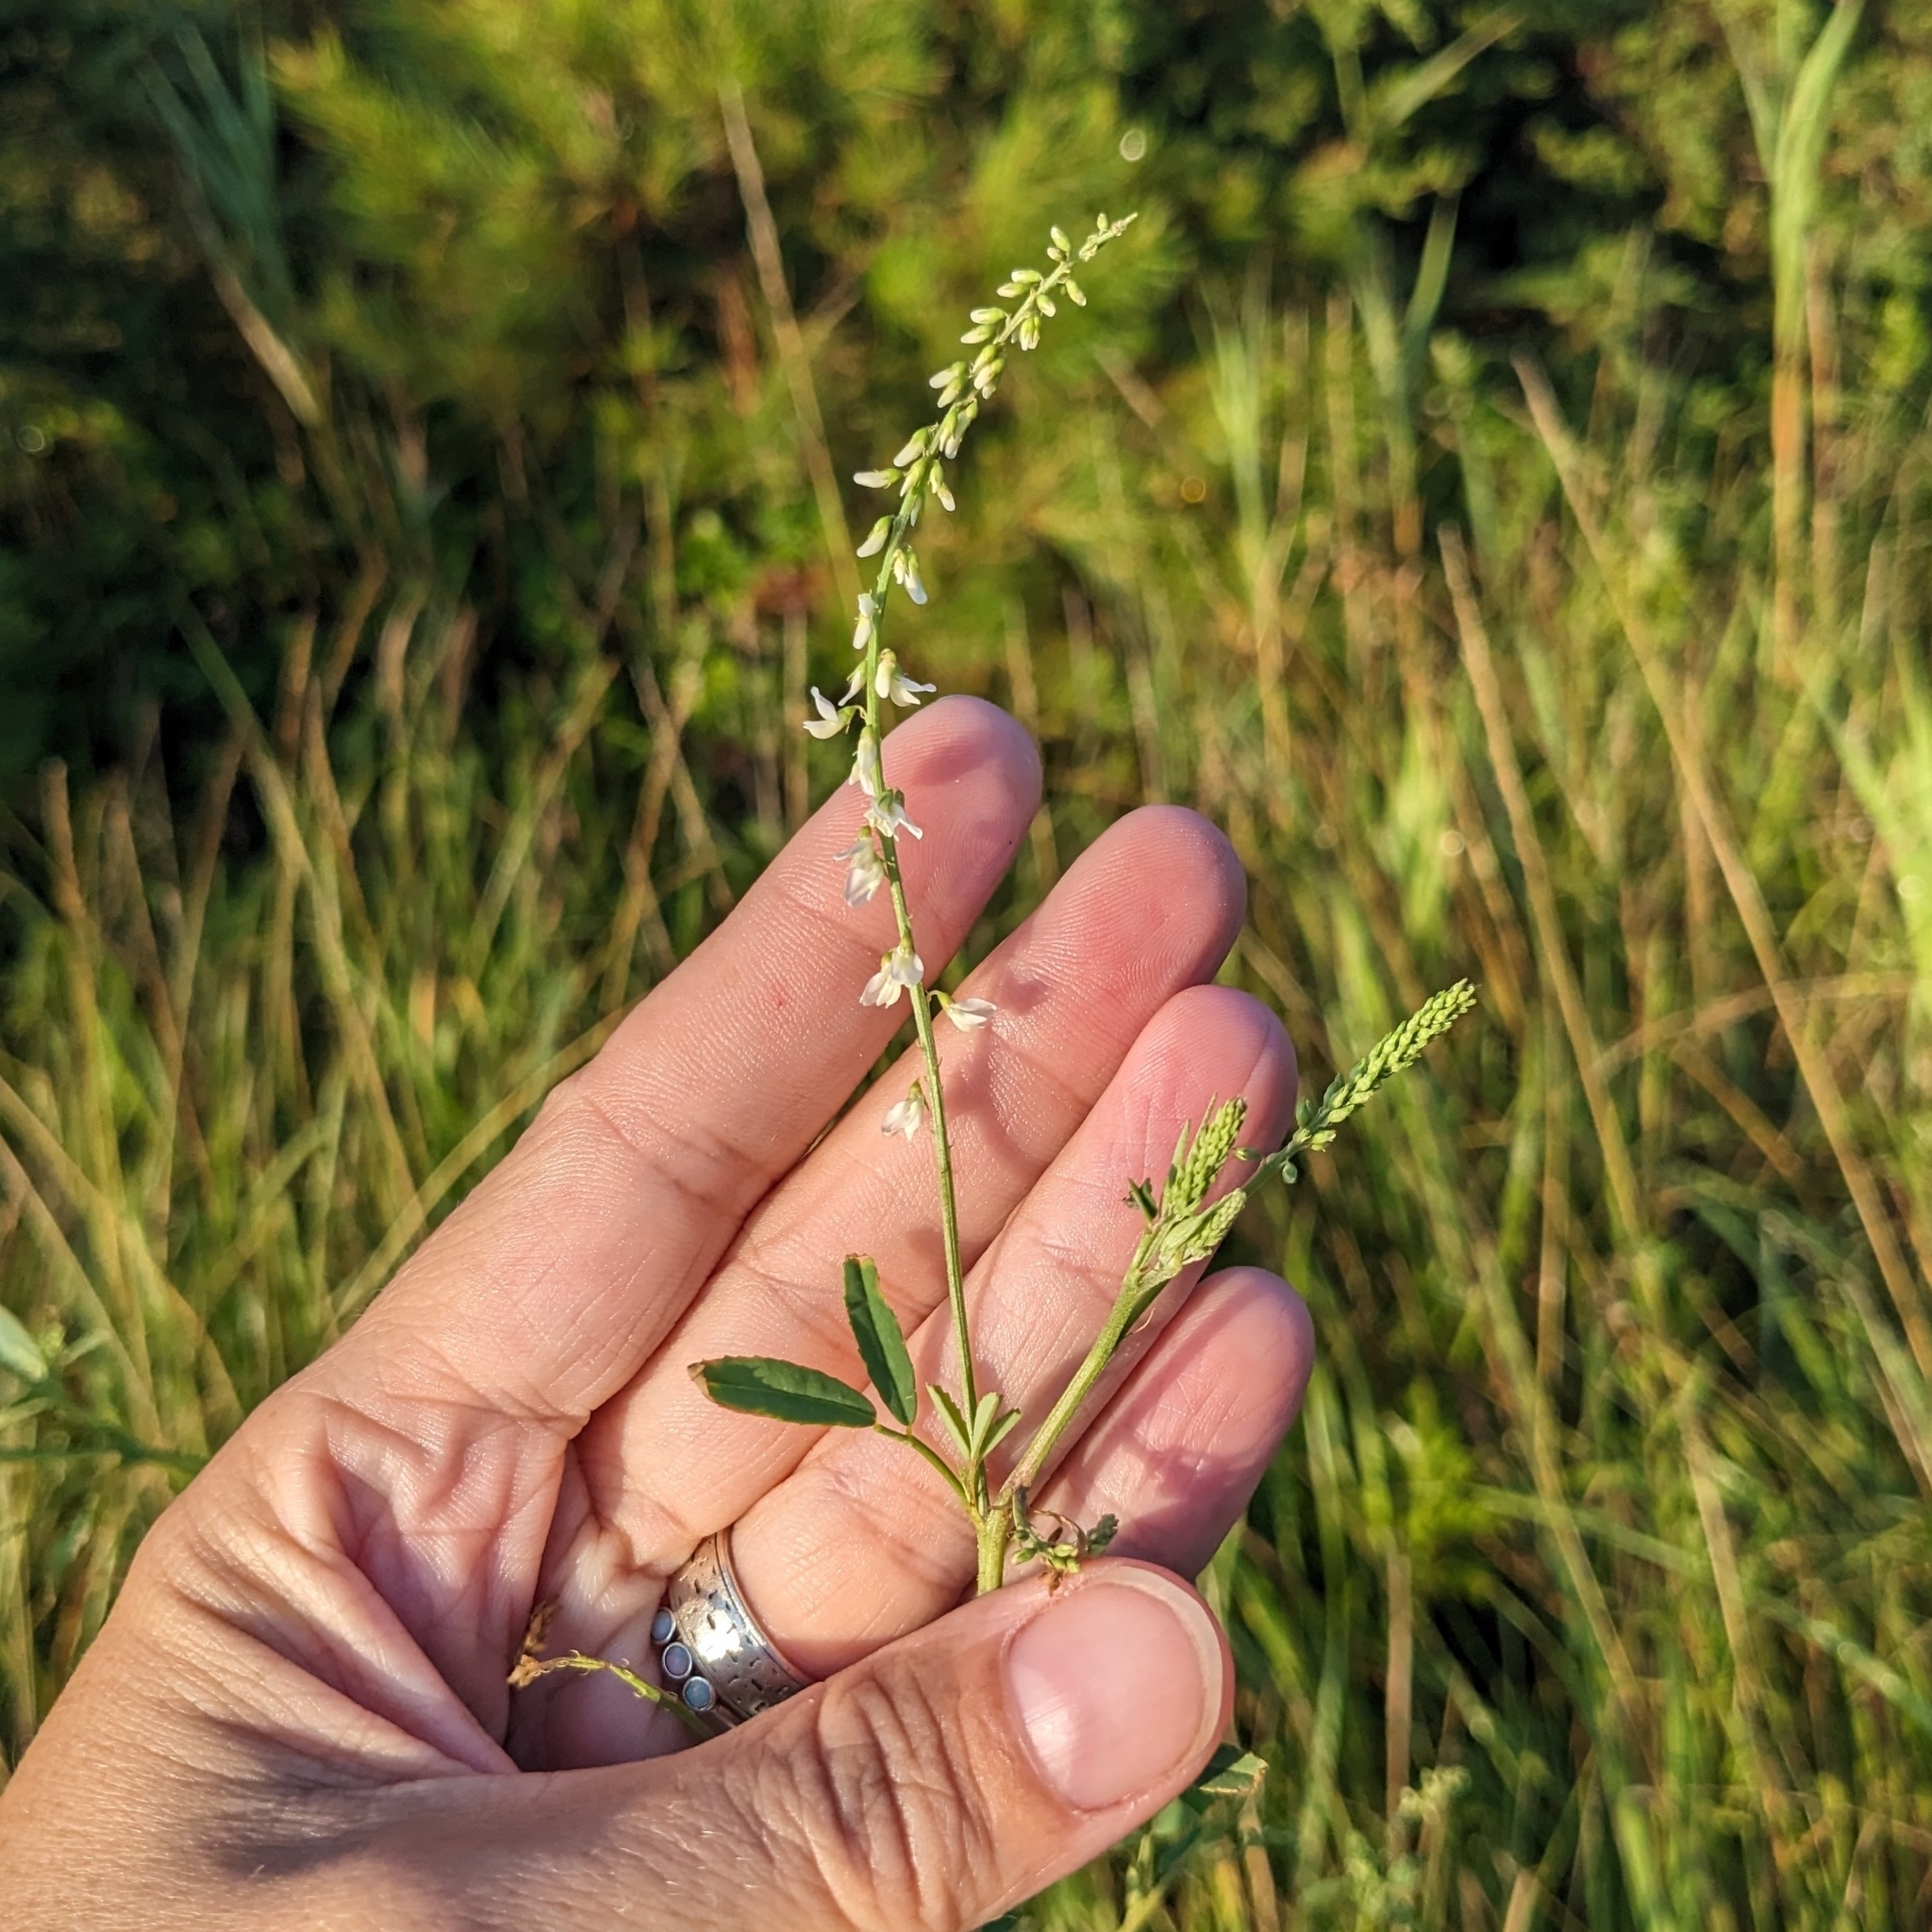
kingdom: Plantae
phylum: Tracheophyta
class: Magnoliopsida
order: Fabales
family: Fabaceae
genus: Melilotus
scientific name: Melilotus albus
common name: White melilot
